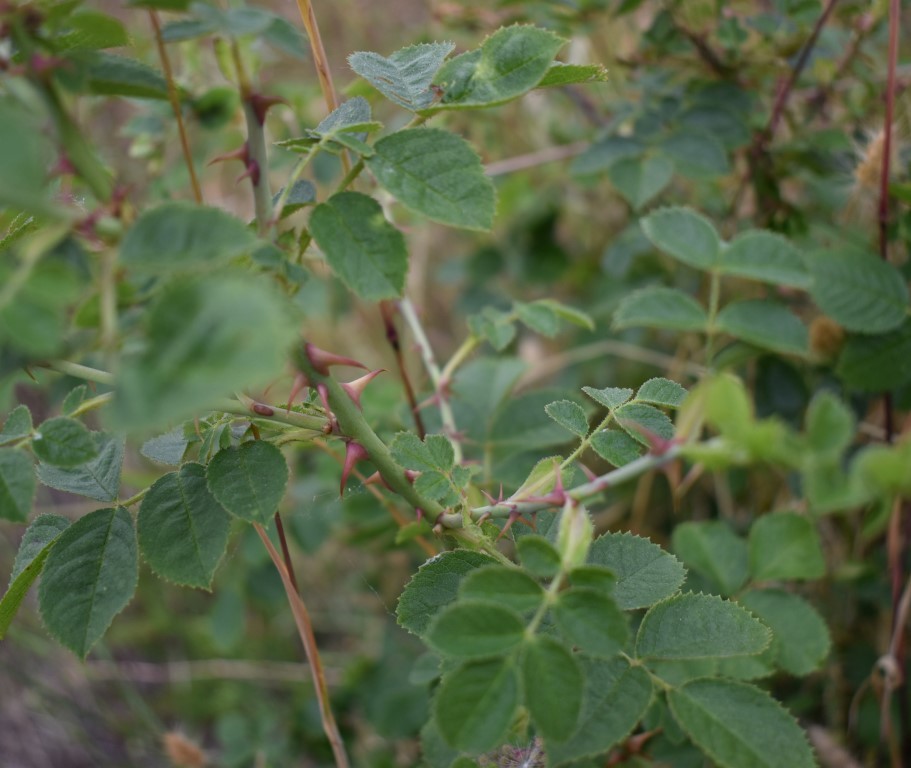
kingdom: Animalia
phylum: Arthropoda
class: Insecta
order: Hymenoptera
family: Cynipidae
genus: Diplolepis
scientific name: Diplolepis rosae
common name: Bedeguar gall
